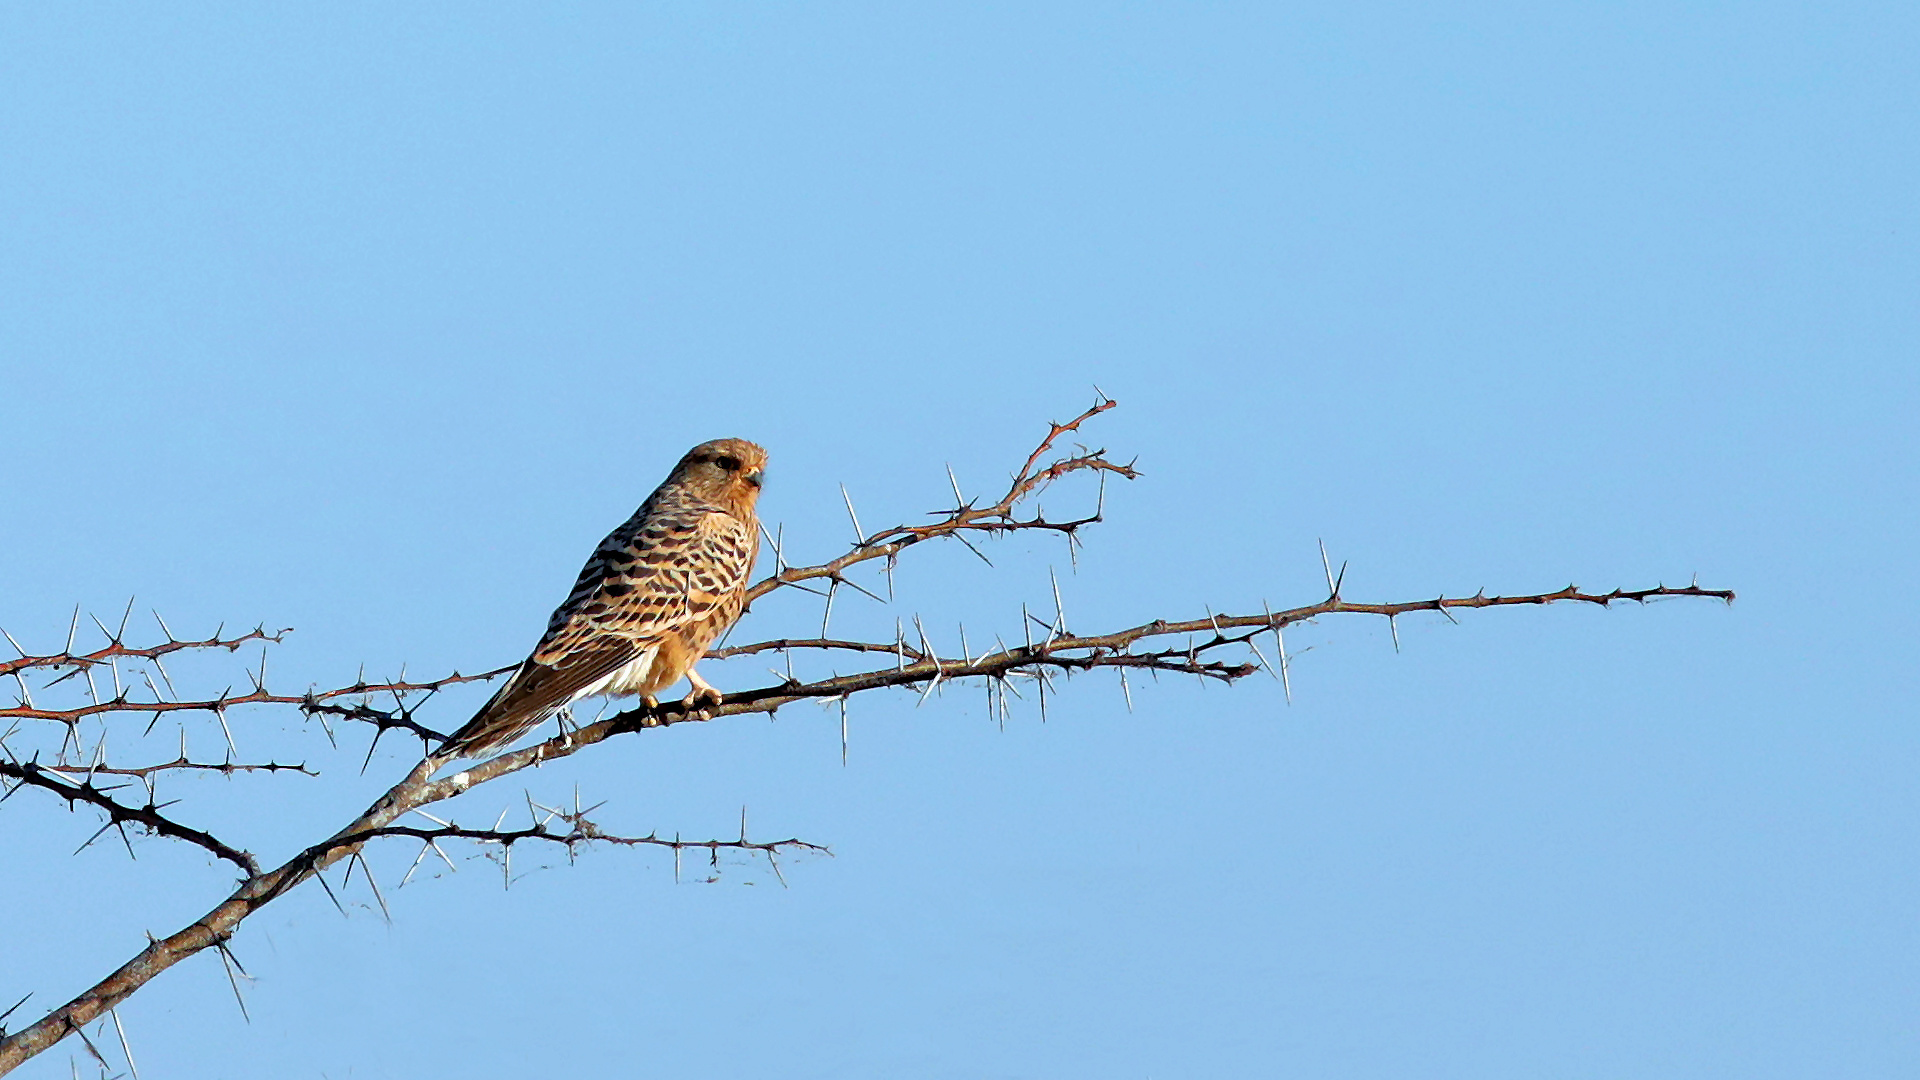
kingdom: Animalia
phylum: Chordata
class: Aves
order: Falconiformes
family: Falconidae
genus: Falco
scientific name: Falco rupicoloides
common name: Greater kestrel
